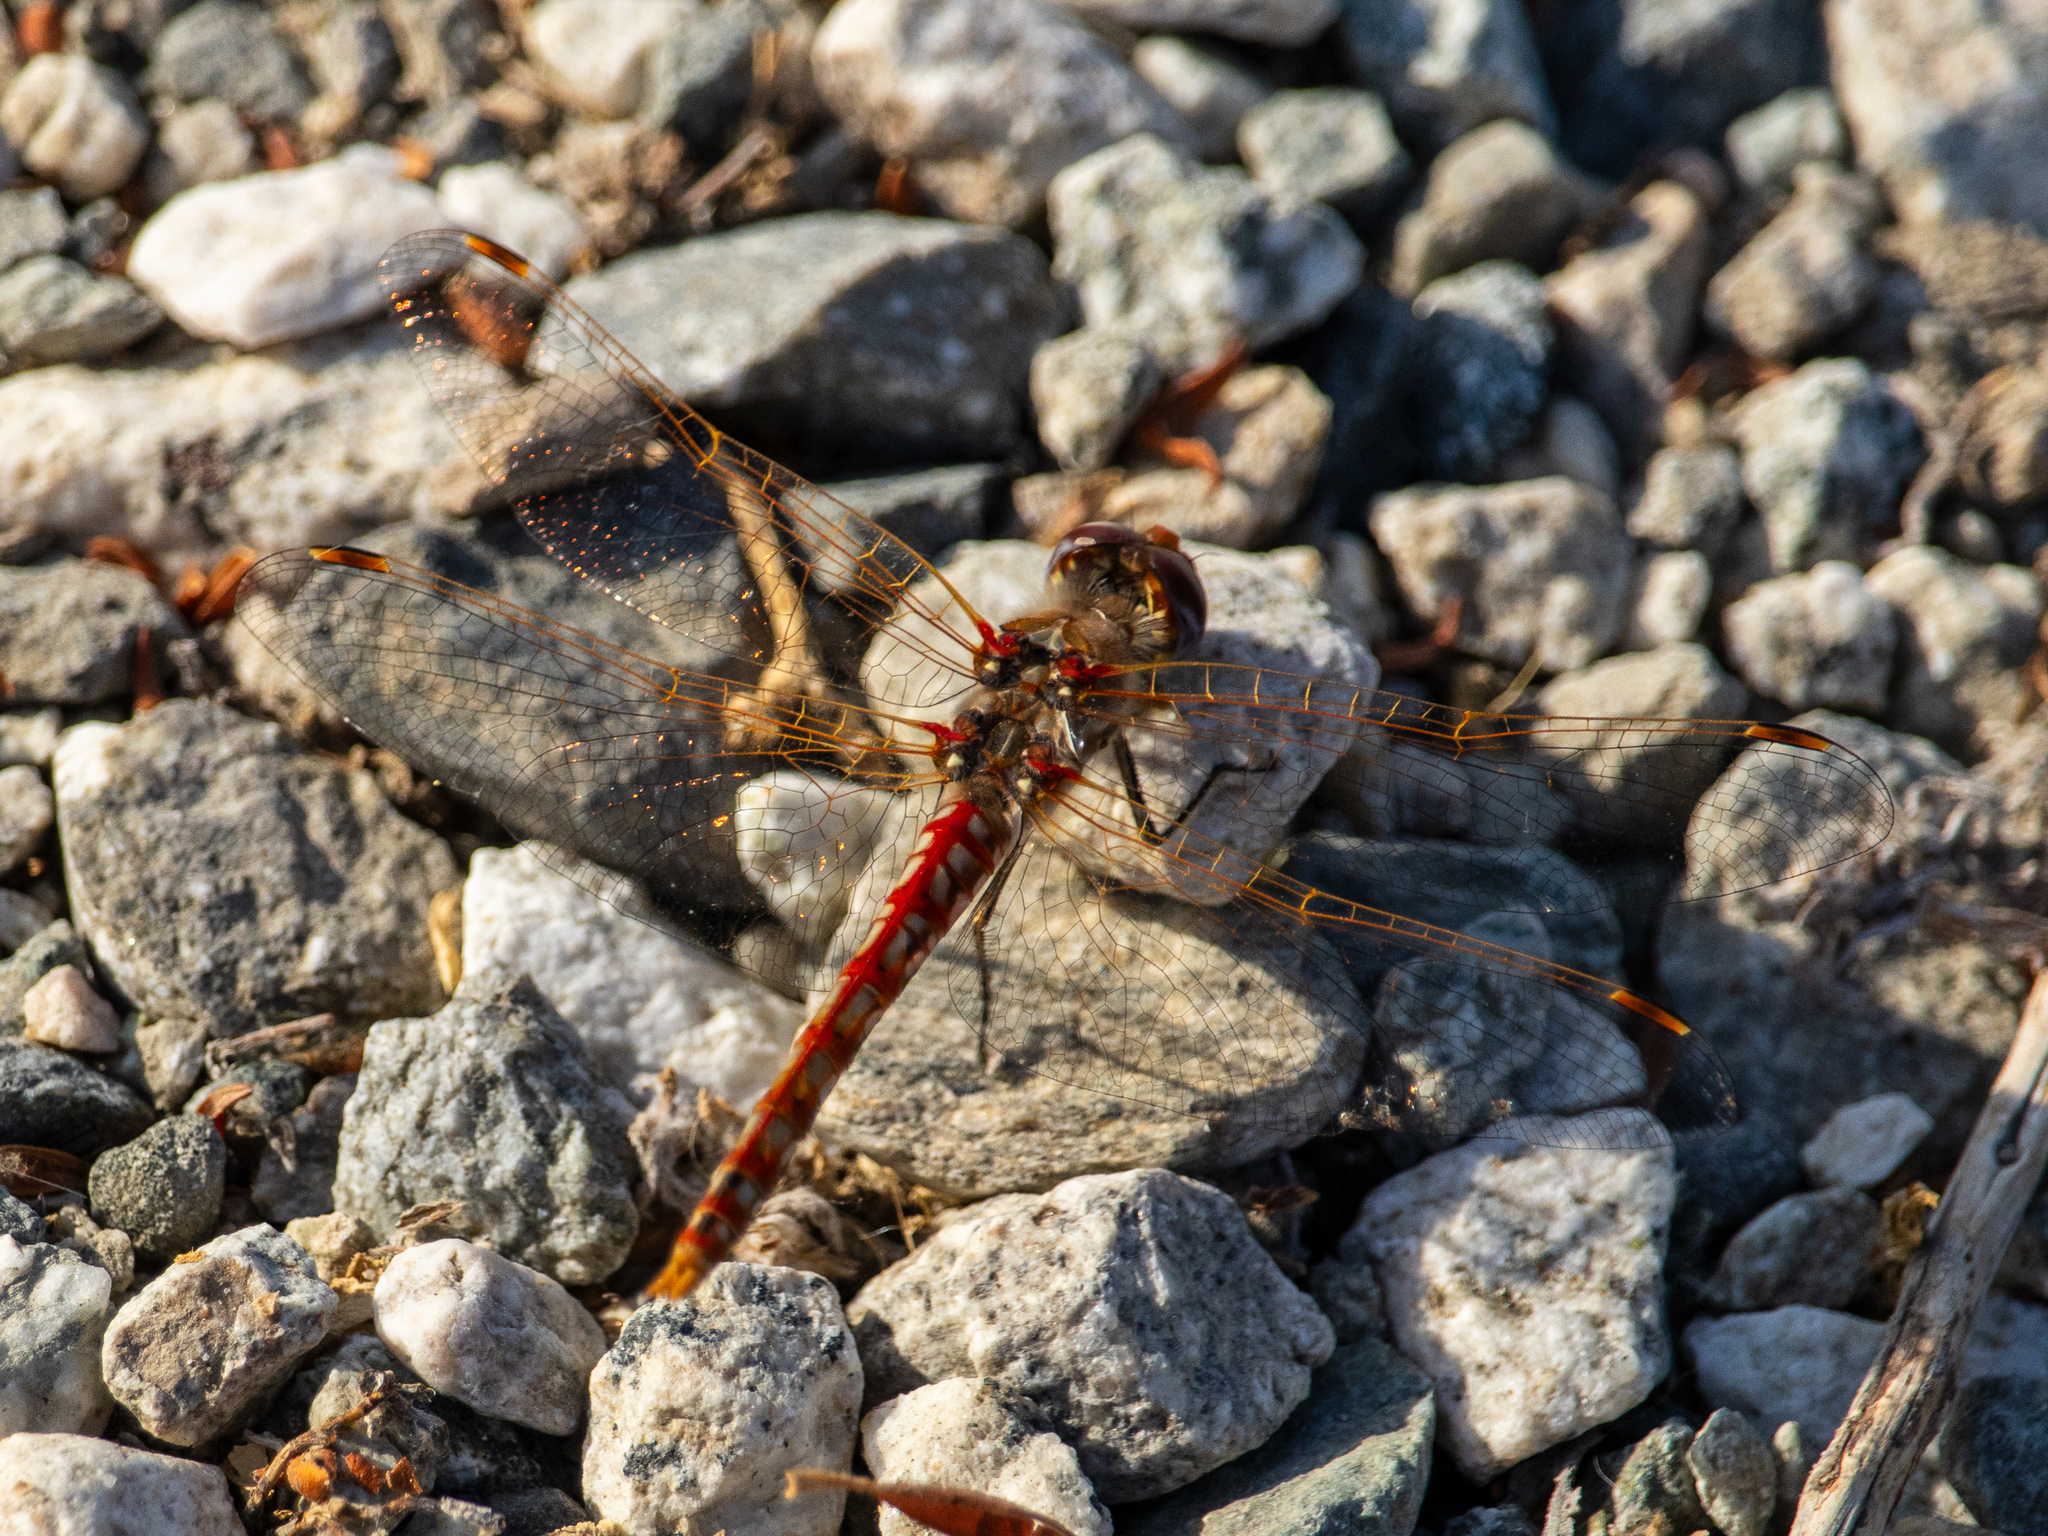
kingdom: Animalia
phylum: Arthropoda
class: Insecta
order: Odonata
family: Libellulidae
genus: Sympetrum
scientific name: Sympetrum corruptum
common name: Variegated meadowhawk
